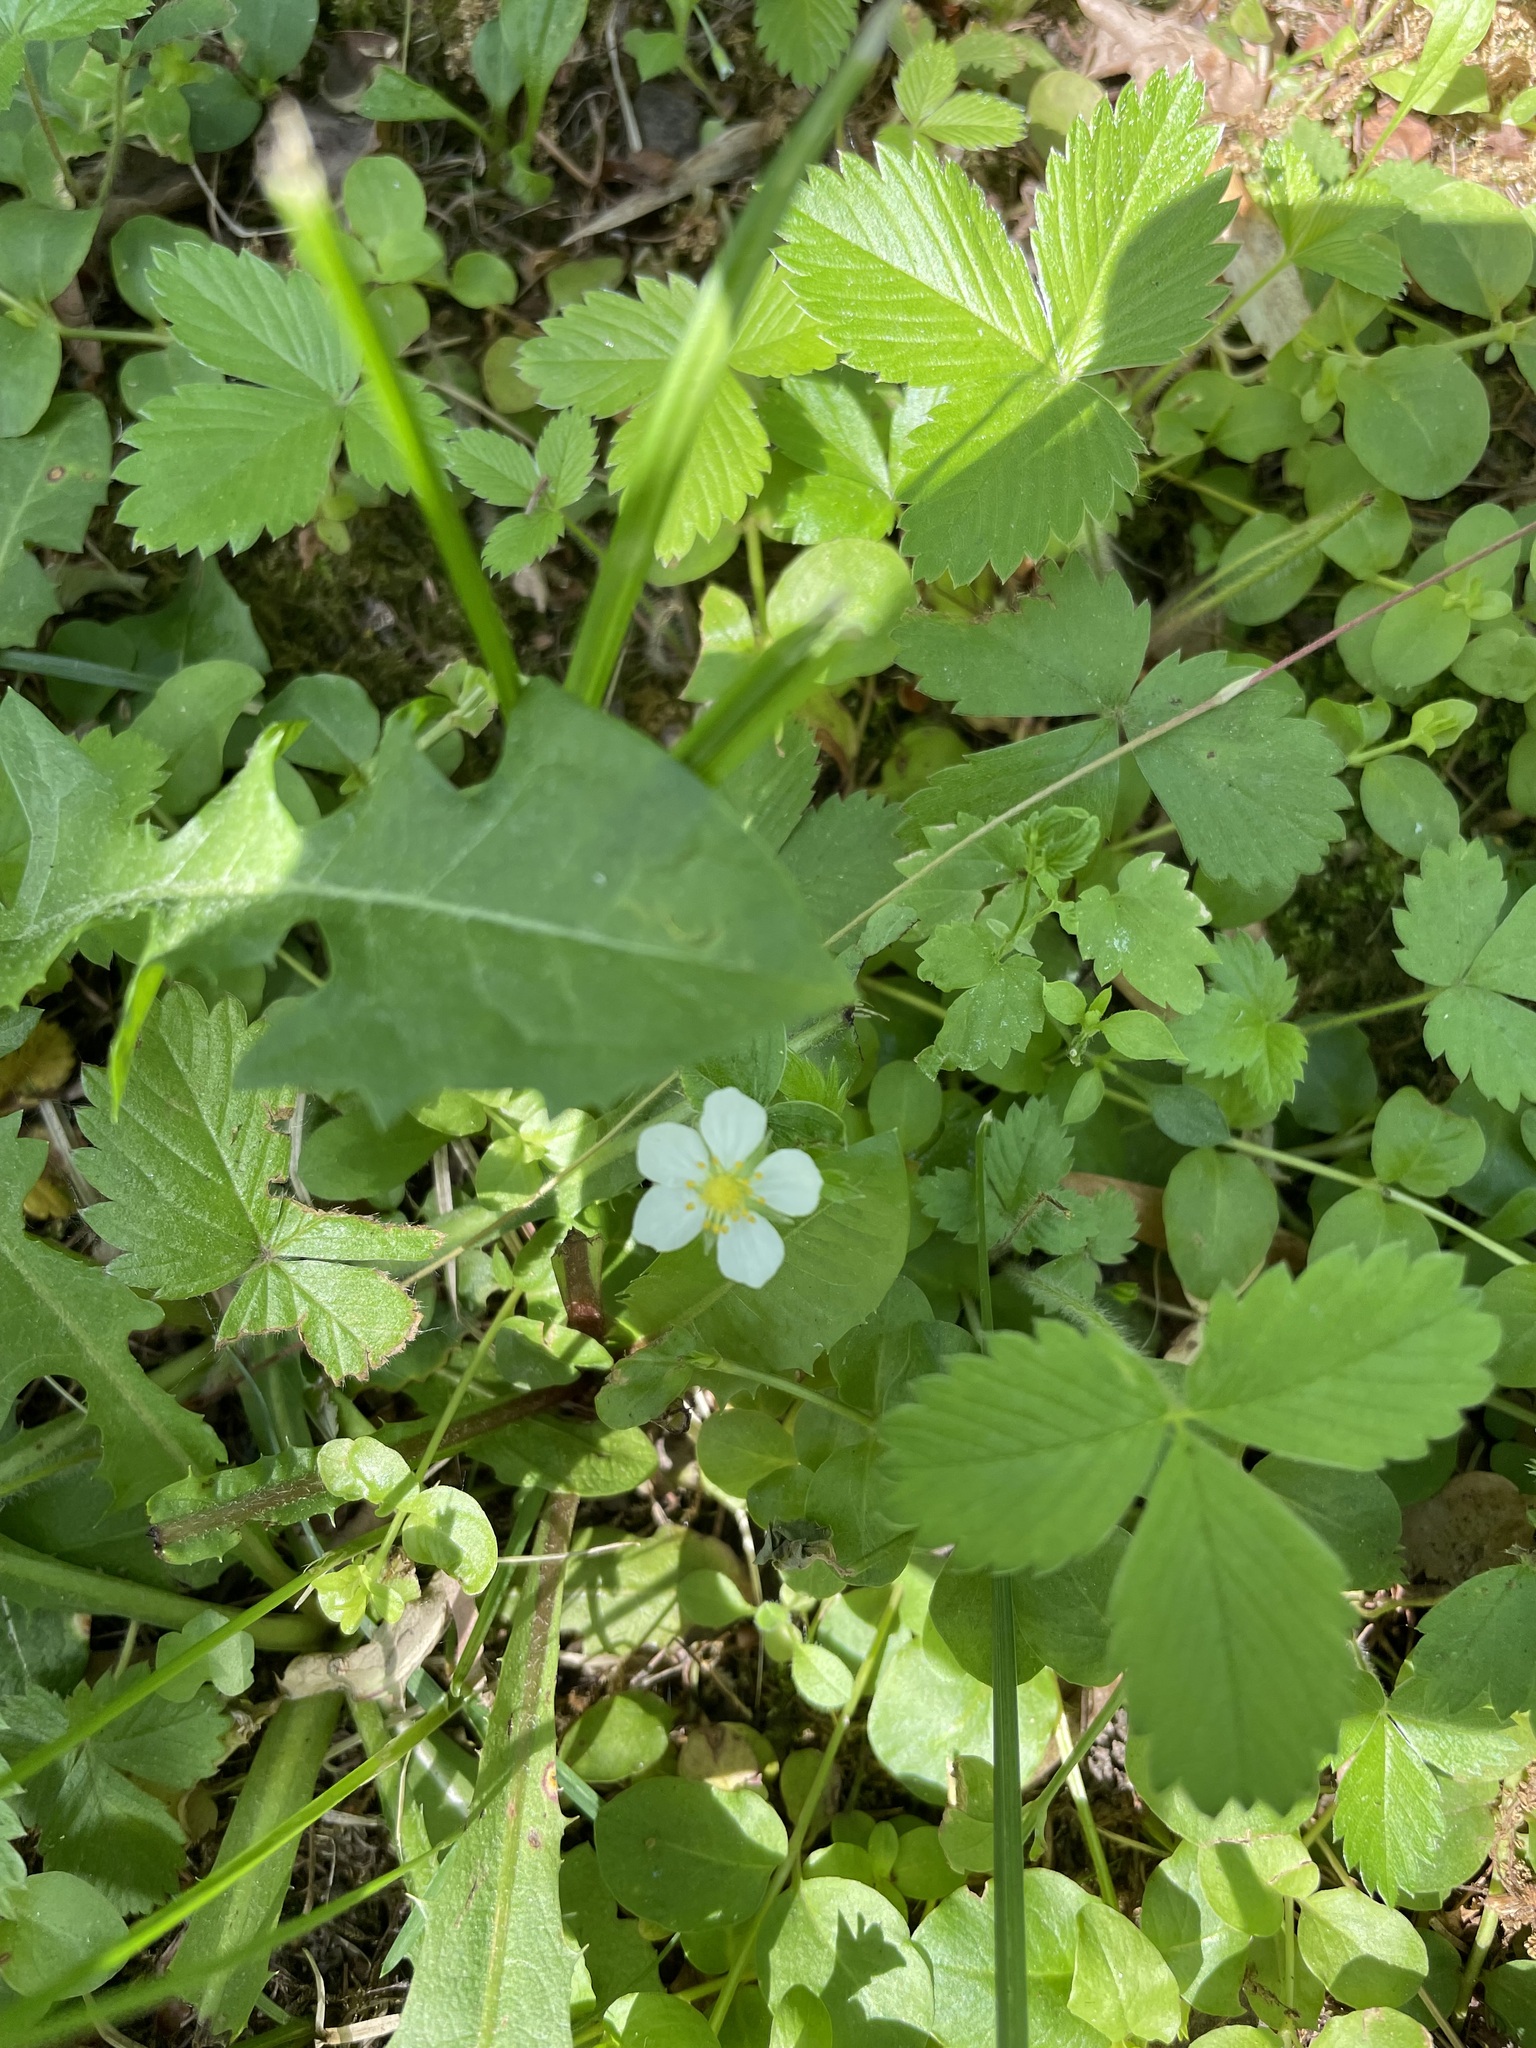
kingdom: Plantae
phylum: Tracheophyta
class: Magnoliopsida
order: Rosales
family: Rosaceae
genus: Fragaria
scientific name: Fragaria vesca
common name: Wild strawberry
